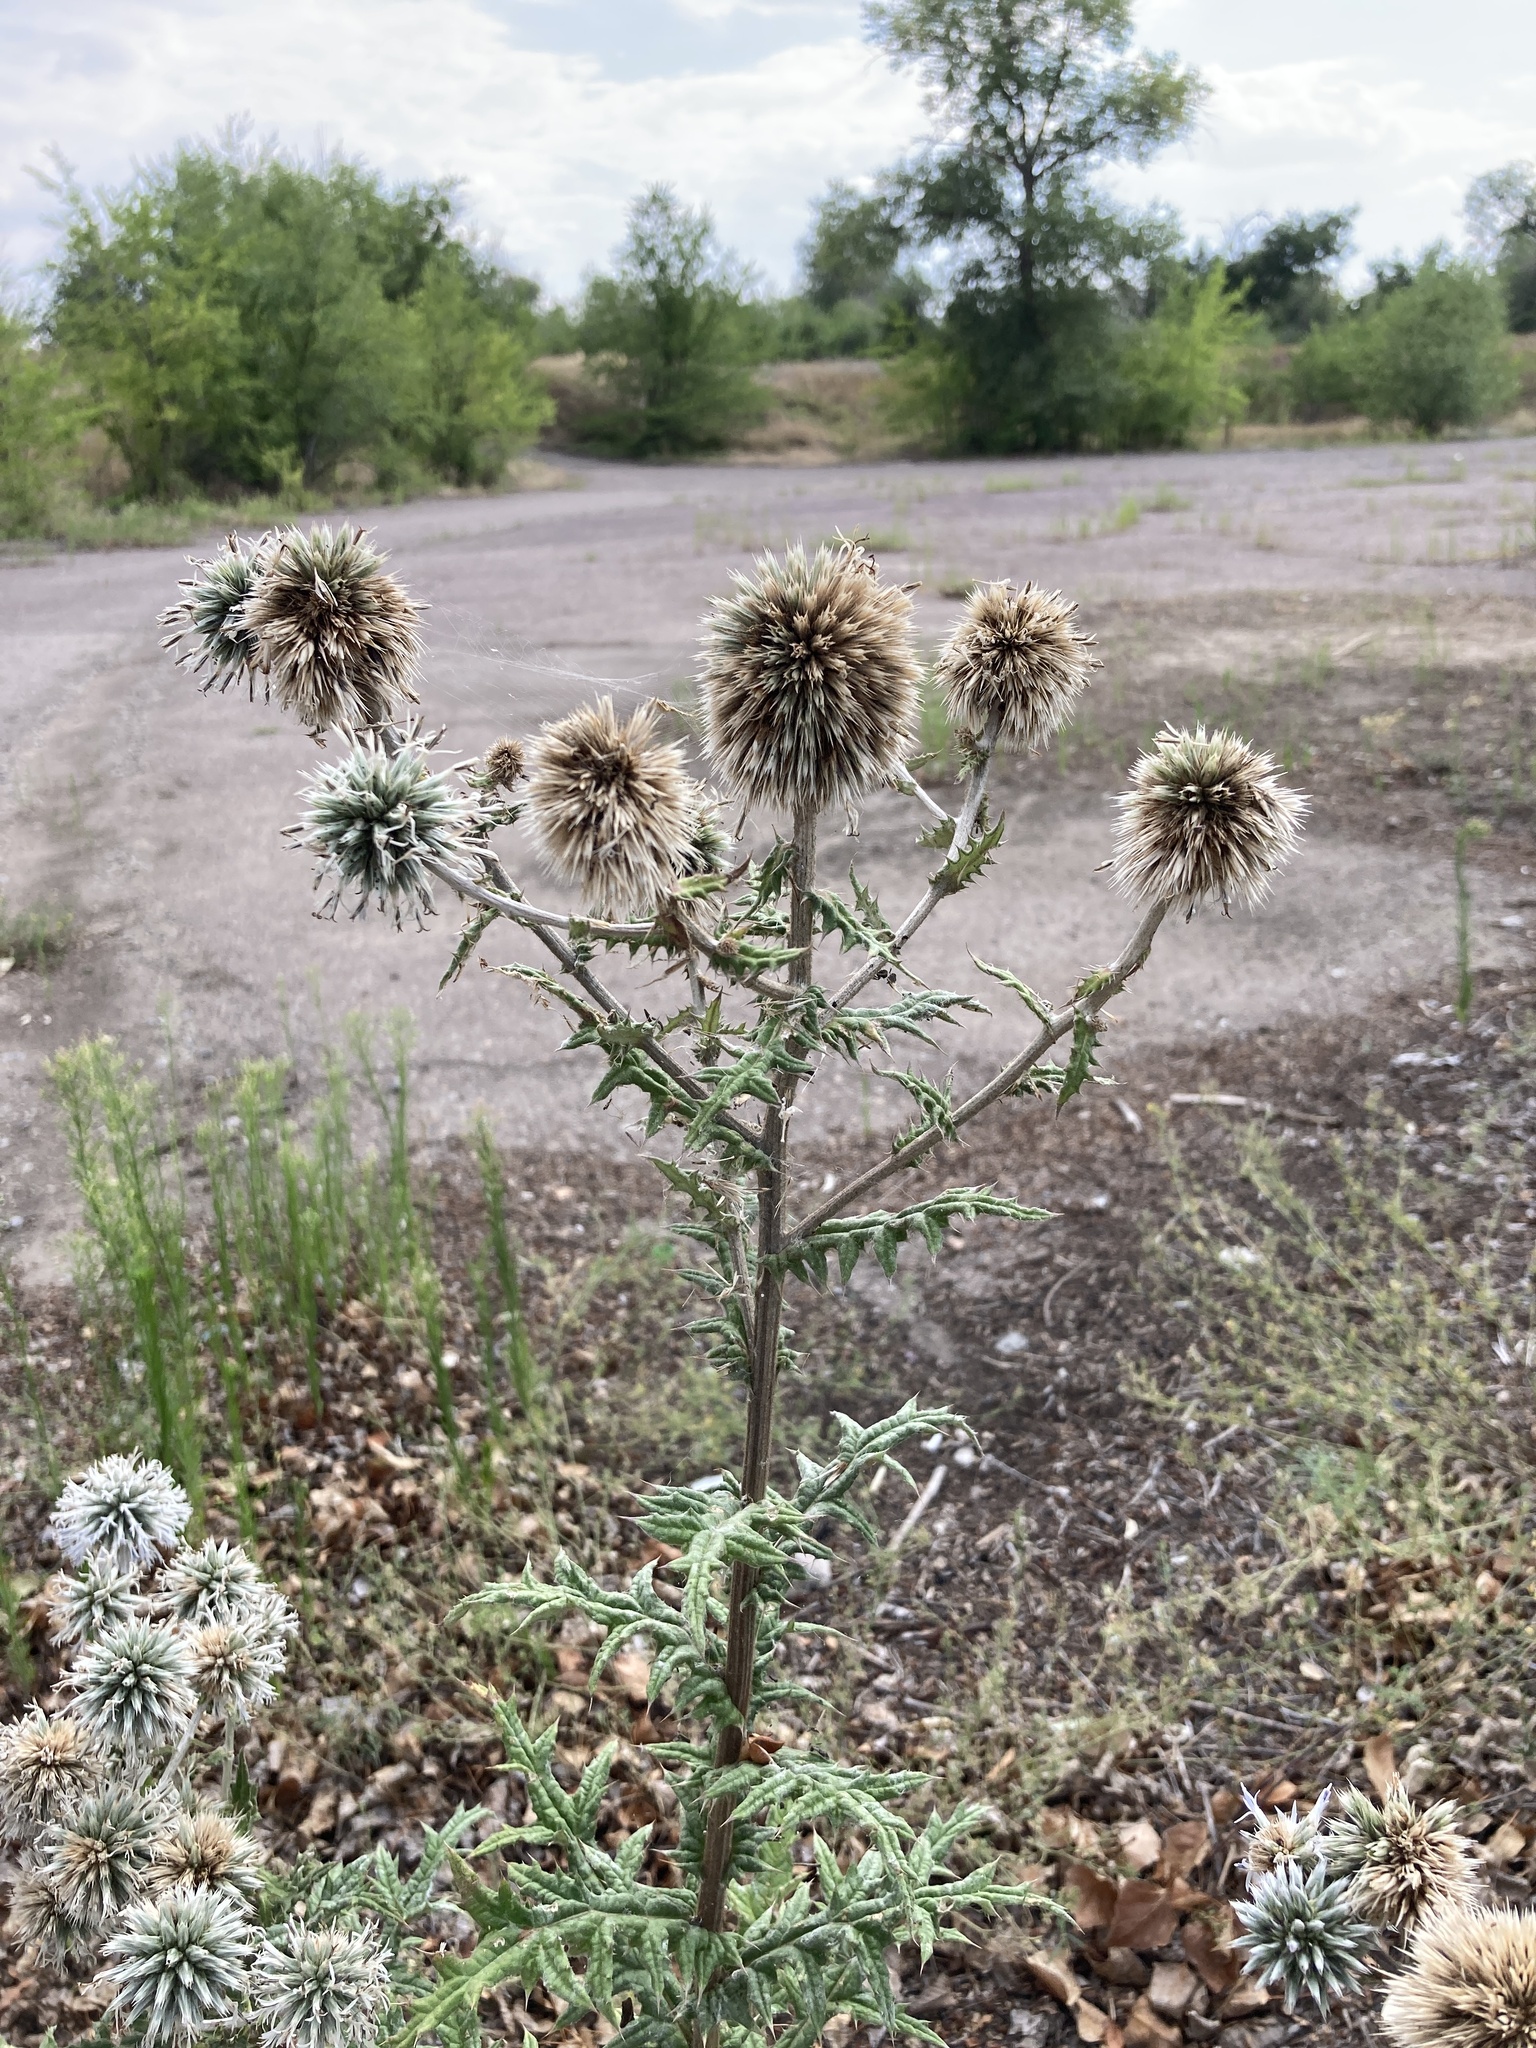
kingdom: Plantae
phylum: Tracheophyta
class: Magnoliopsida
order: Asterales
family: Asteraceae
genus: Echinops
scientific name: Echinops sphaerocephalus
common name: Glandular globe-thistle
